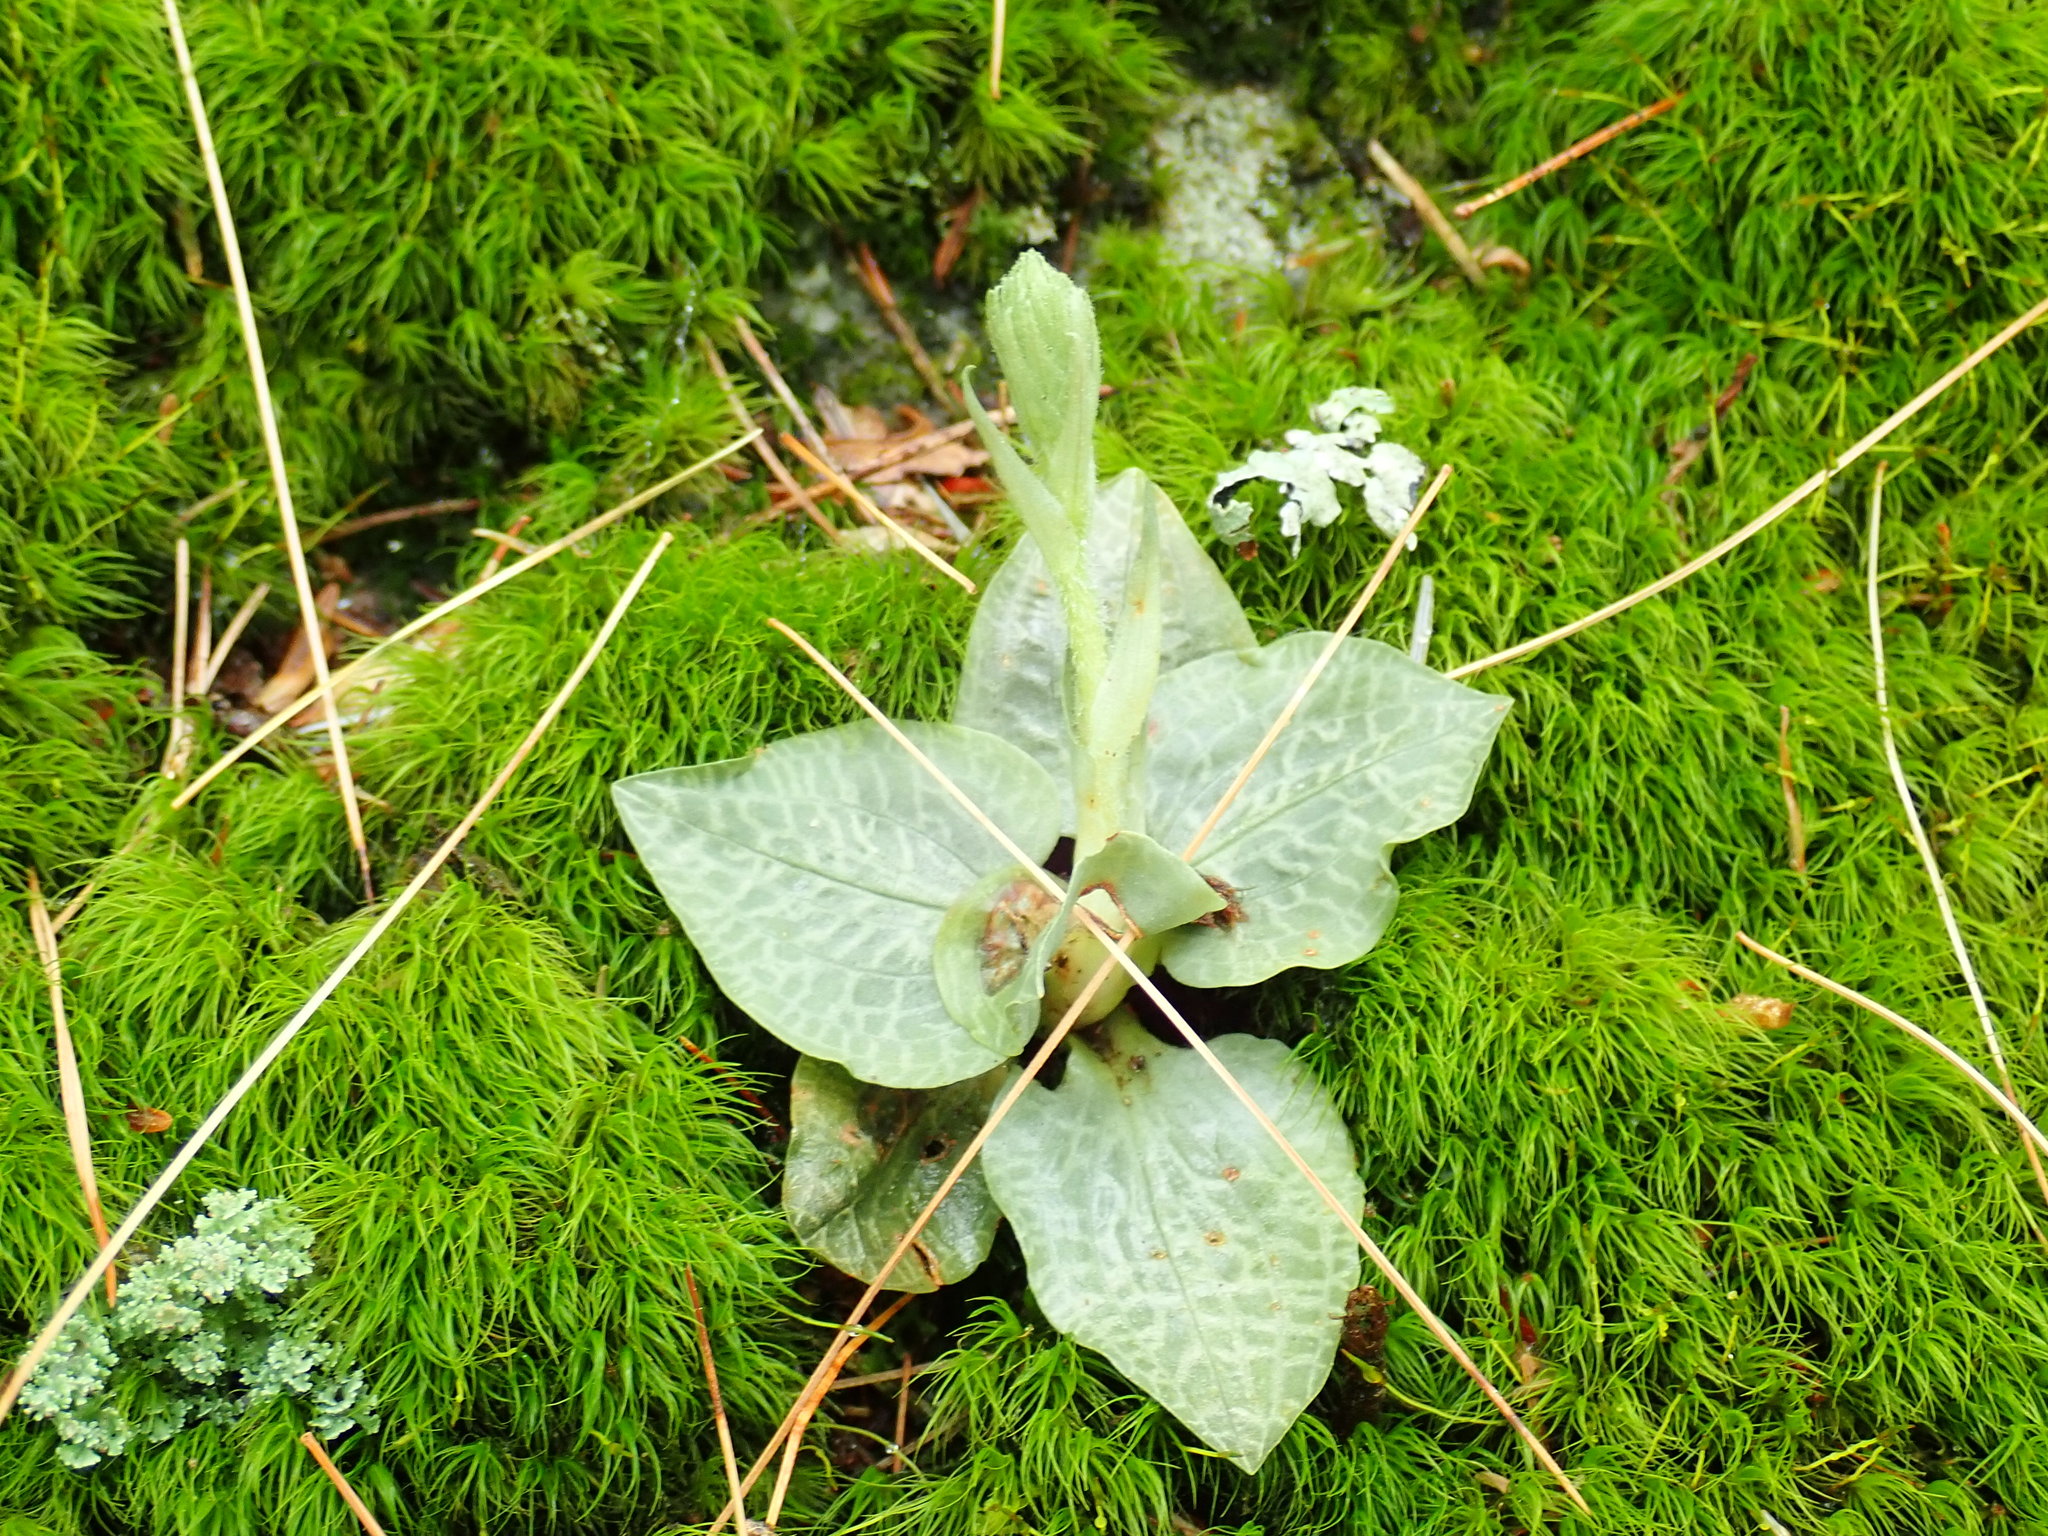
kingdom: Plantae
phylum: Tracheophyta
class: Liliopsida
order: Asparagales
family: Orchidaceae
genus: Goodyera
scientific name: Goodyera tesselata
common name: Checkered rattlesnake-plantain
